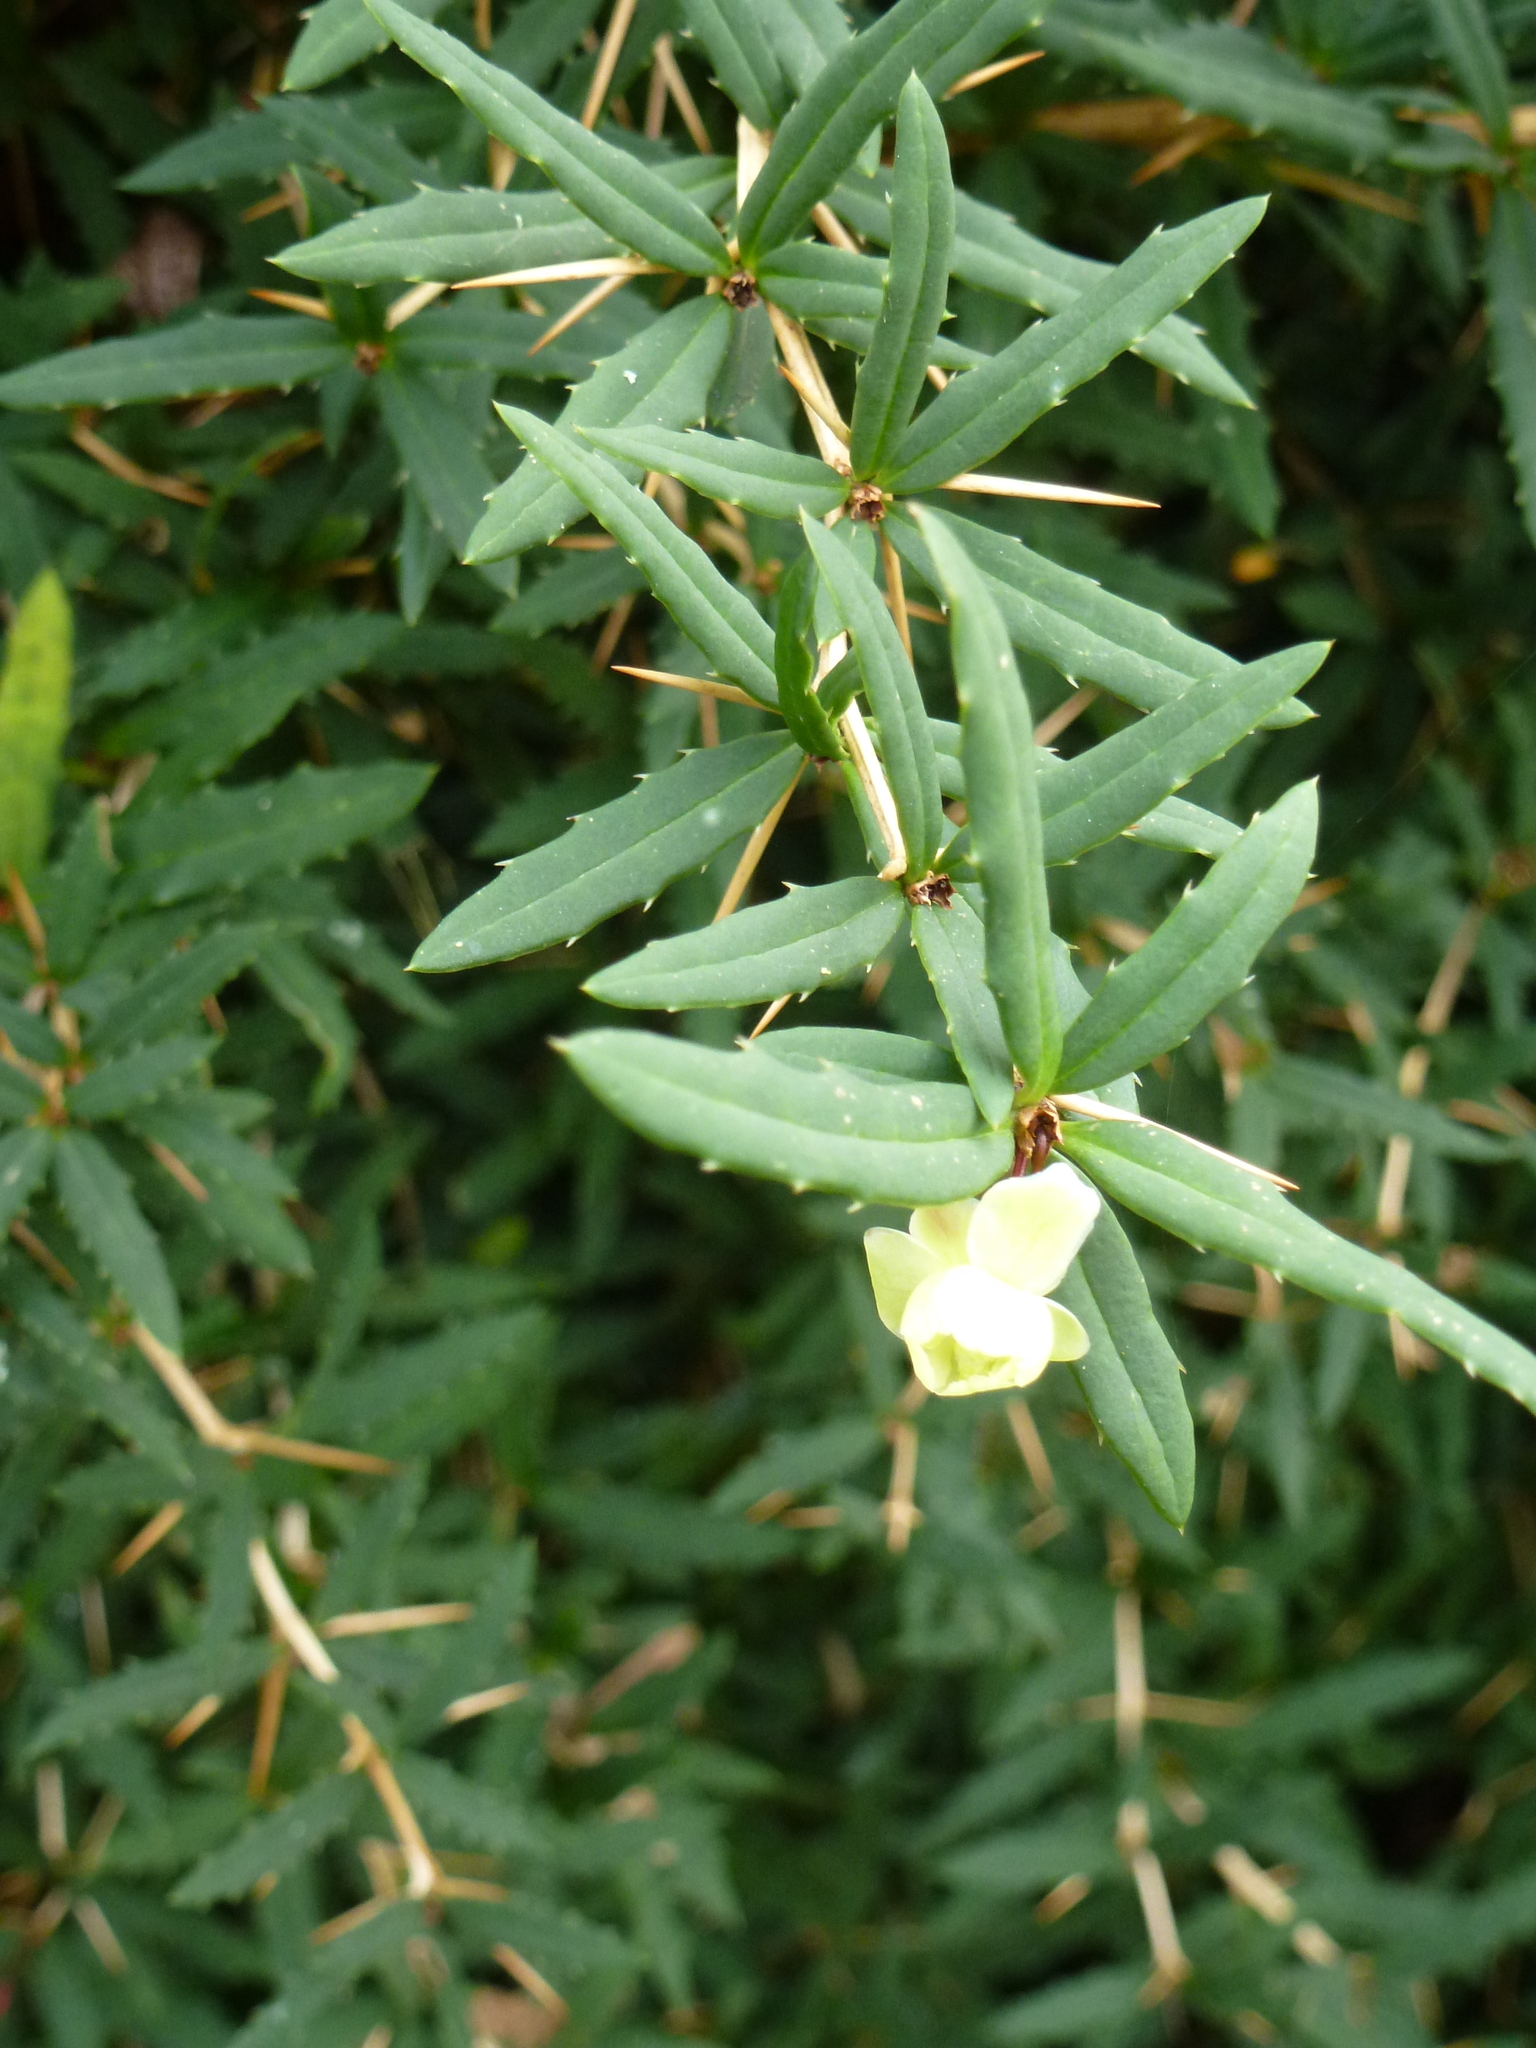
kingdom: Plantae
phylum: Tracheophyta
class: Magnoliopsida
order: Ranunculales
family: Berberidaceae
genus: Berberis
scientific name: Berberis gagnepainii
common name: Gagnepain's barberry
